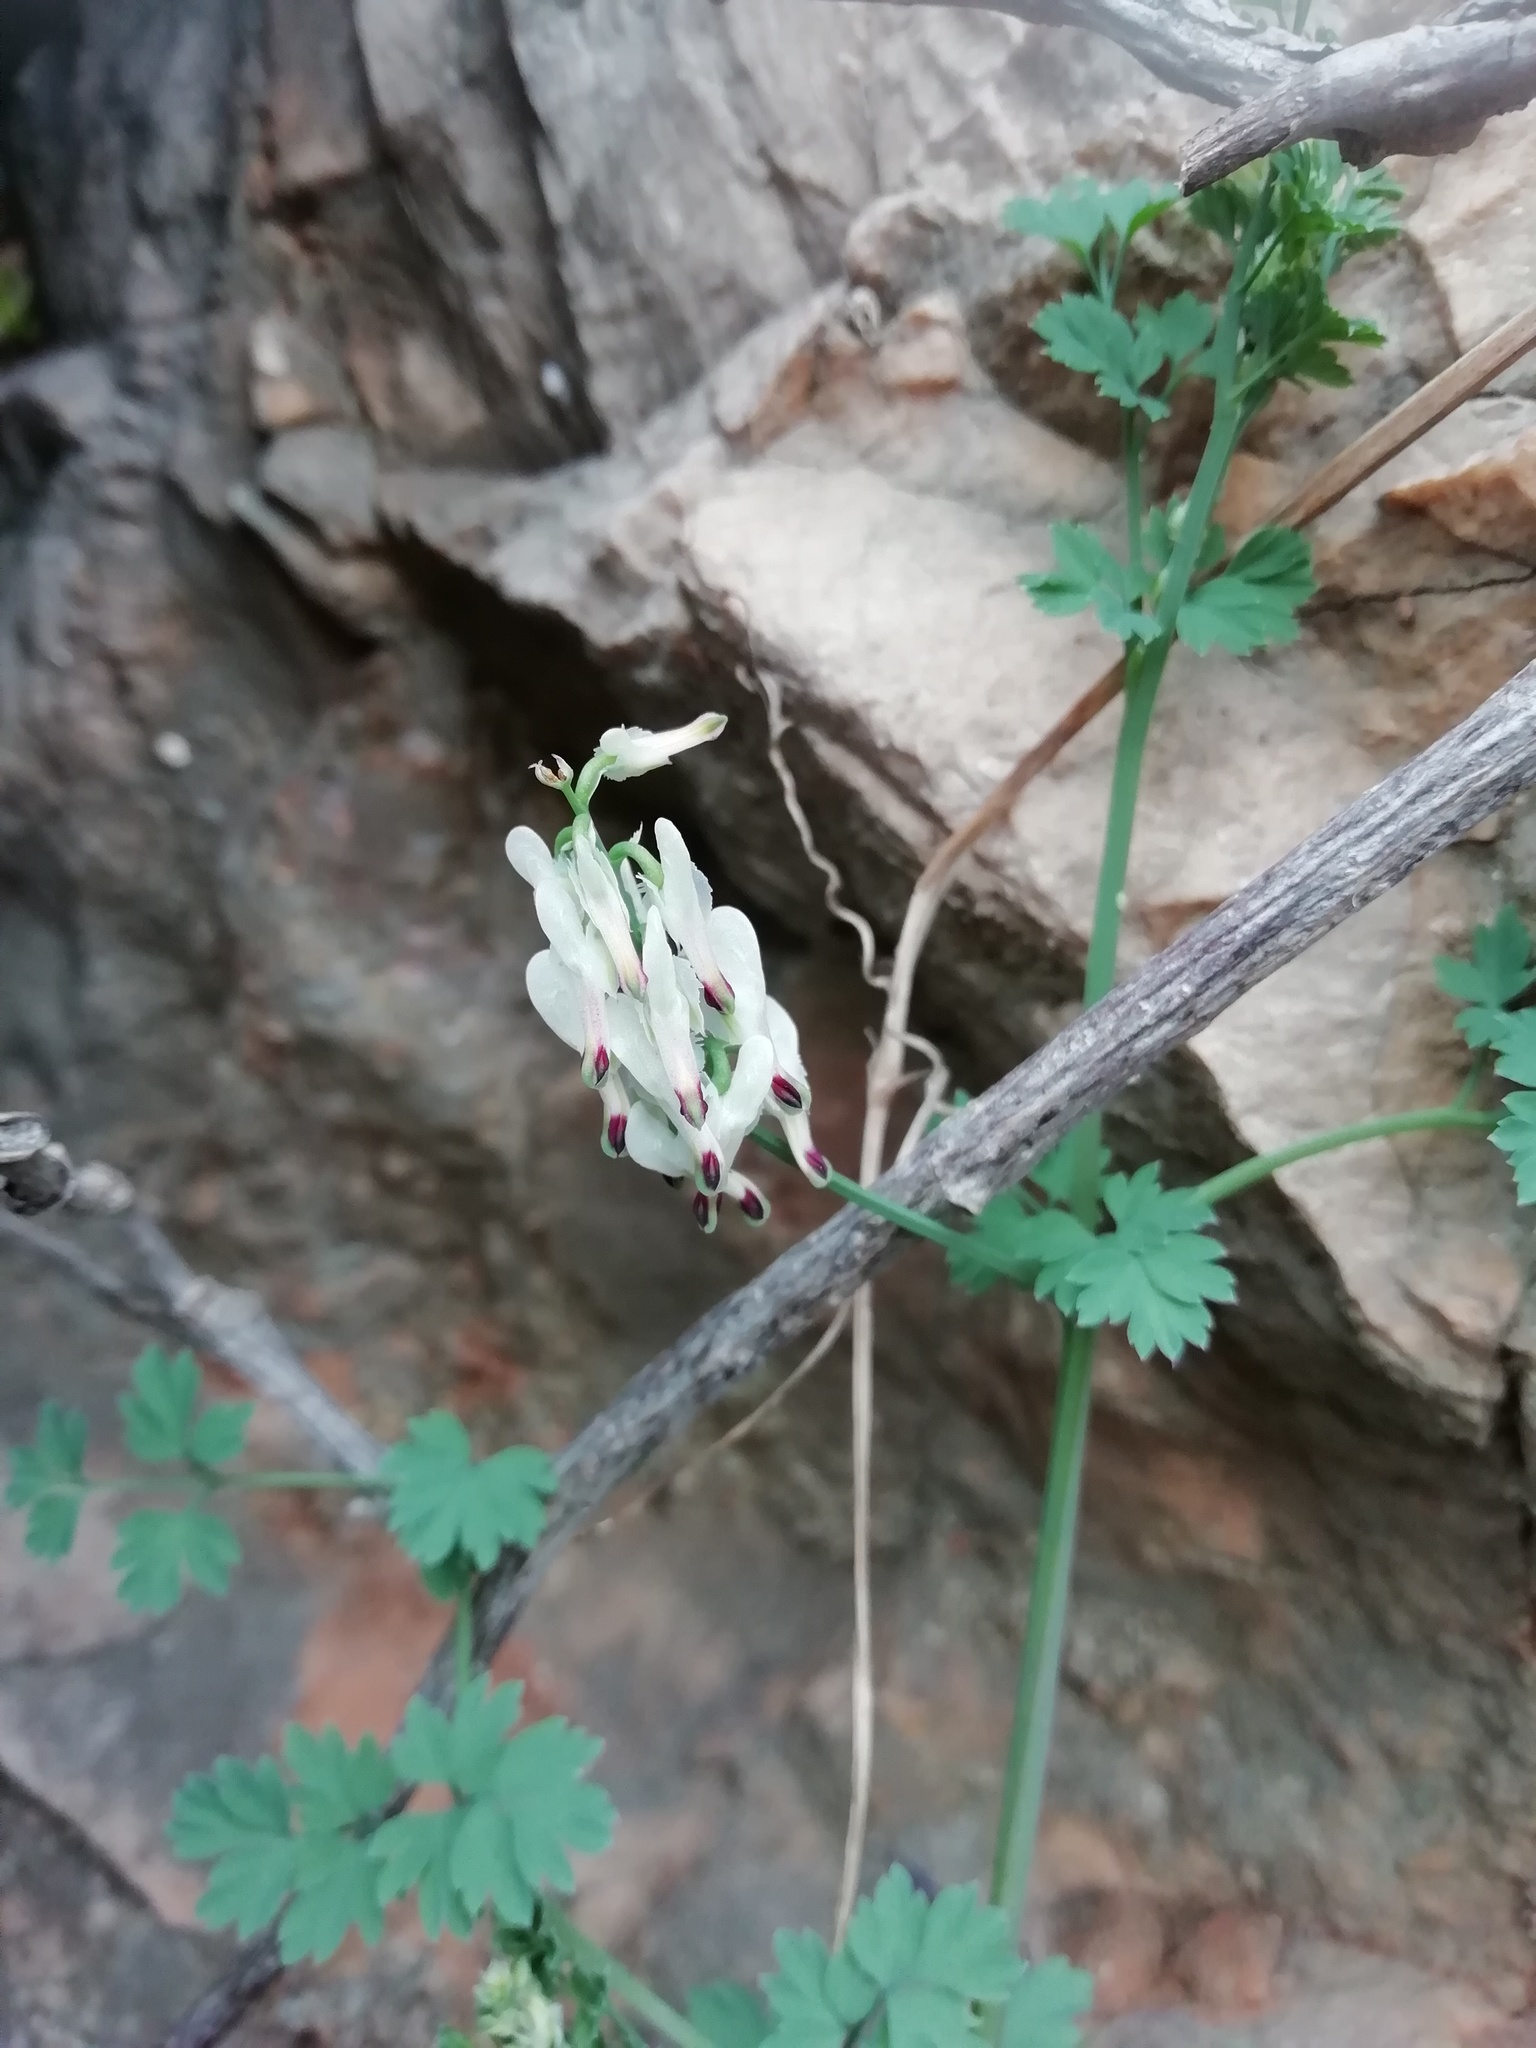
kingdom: Plantae
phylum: Tracheophyta
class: Magnoliopsida
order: Ranunculales
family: Papaveraceae
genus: Fumaria
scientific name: Fumaria capreolata
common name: White ramping-fumitory
